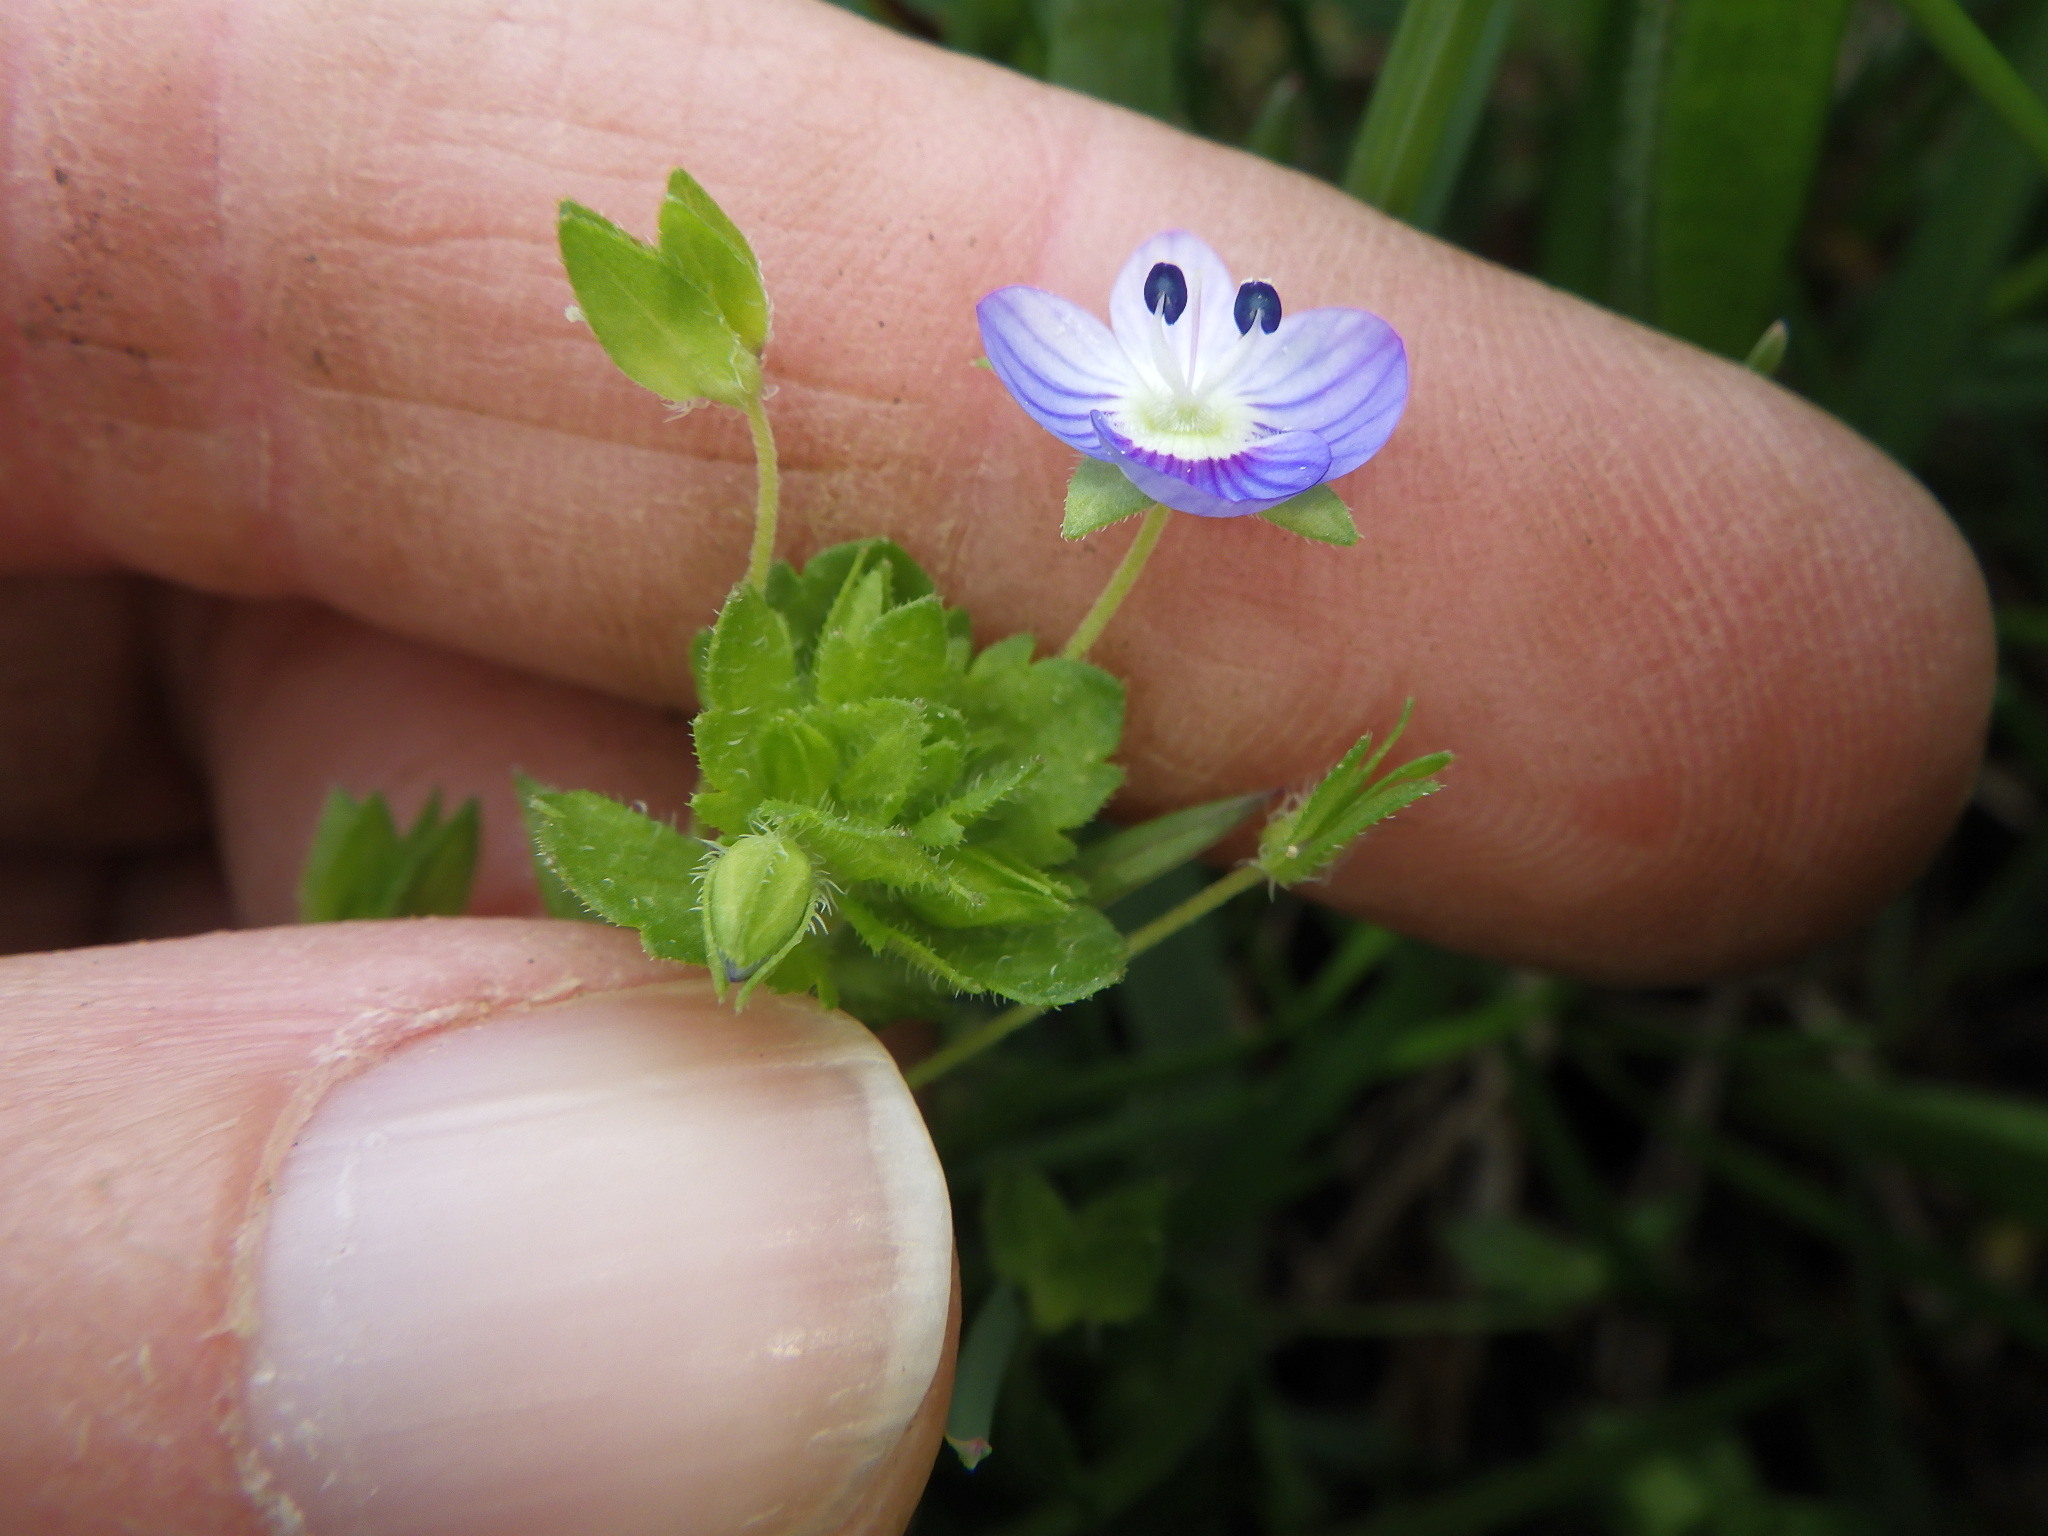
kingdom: Plantae
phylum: Tracheophyta
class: Magnoliopsida
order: Lamiales
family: Plantaginaceae
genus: Veronica
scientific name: Veronica persica
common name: Common field-speedwell
